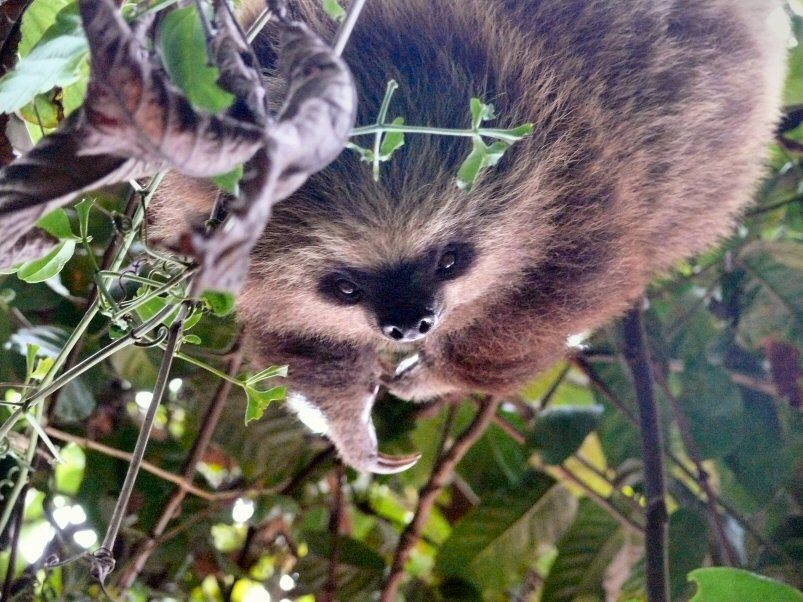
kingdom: Animalia
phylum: Chordata
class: Mammalia
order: Pilosa
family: Megalonychidae
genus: Choloepus
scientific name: Choloepus hoffmanni
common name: Hoffmann's two-toed sloth
